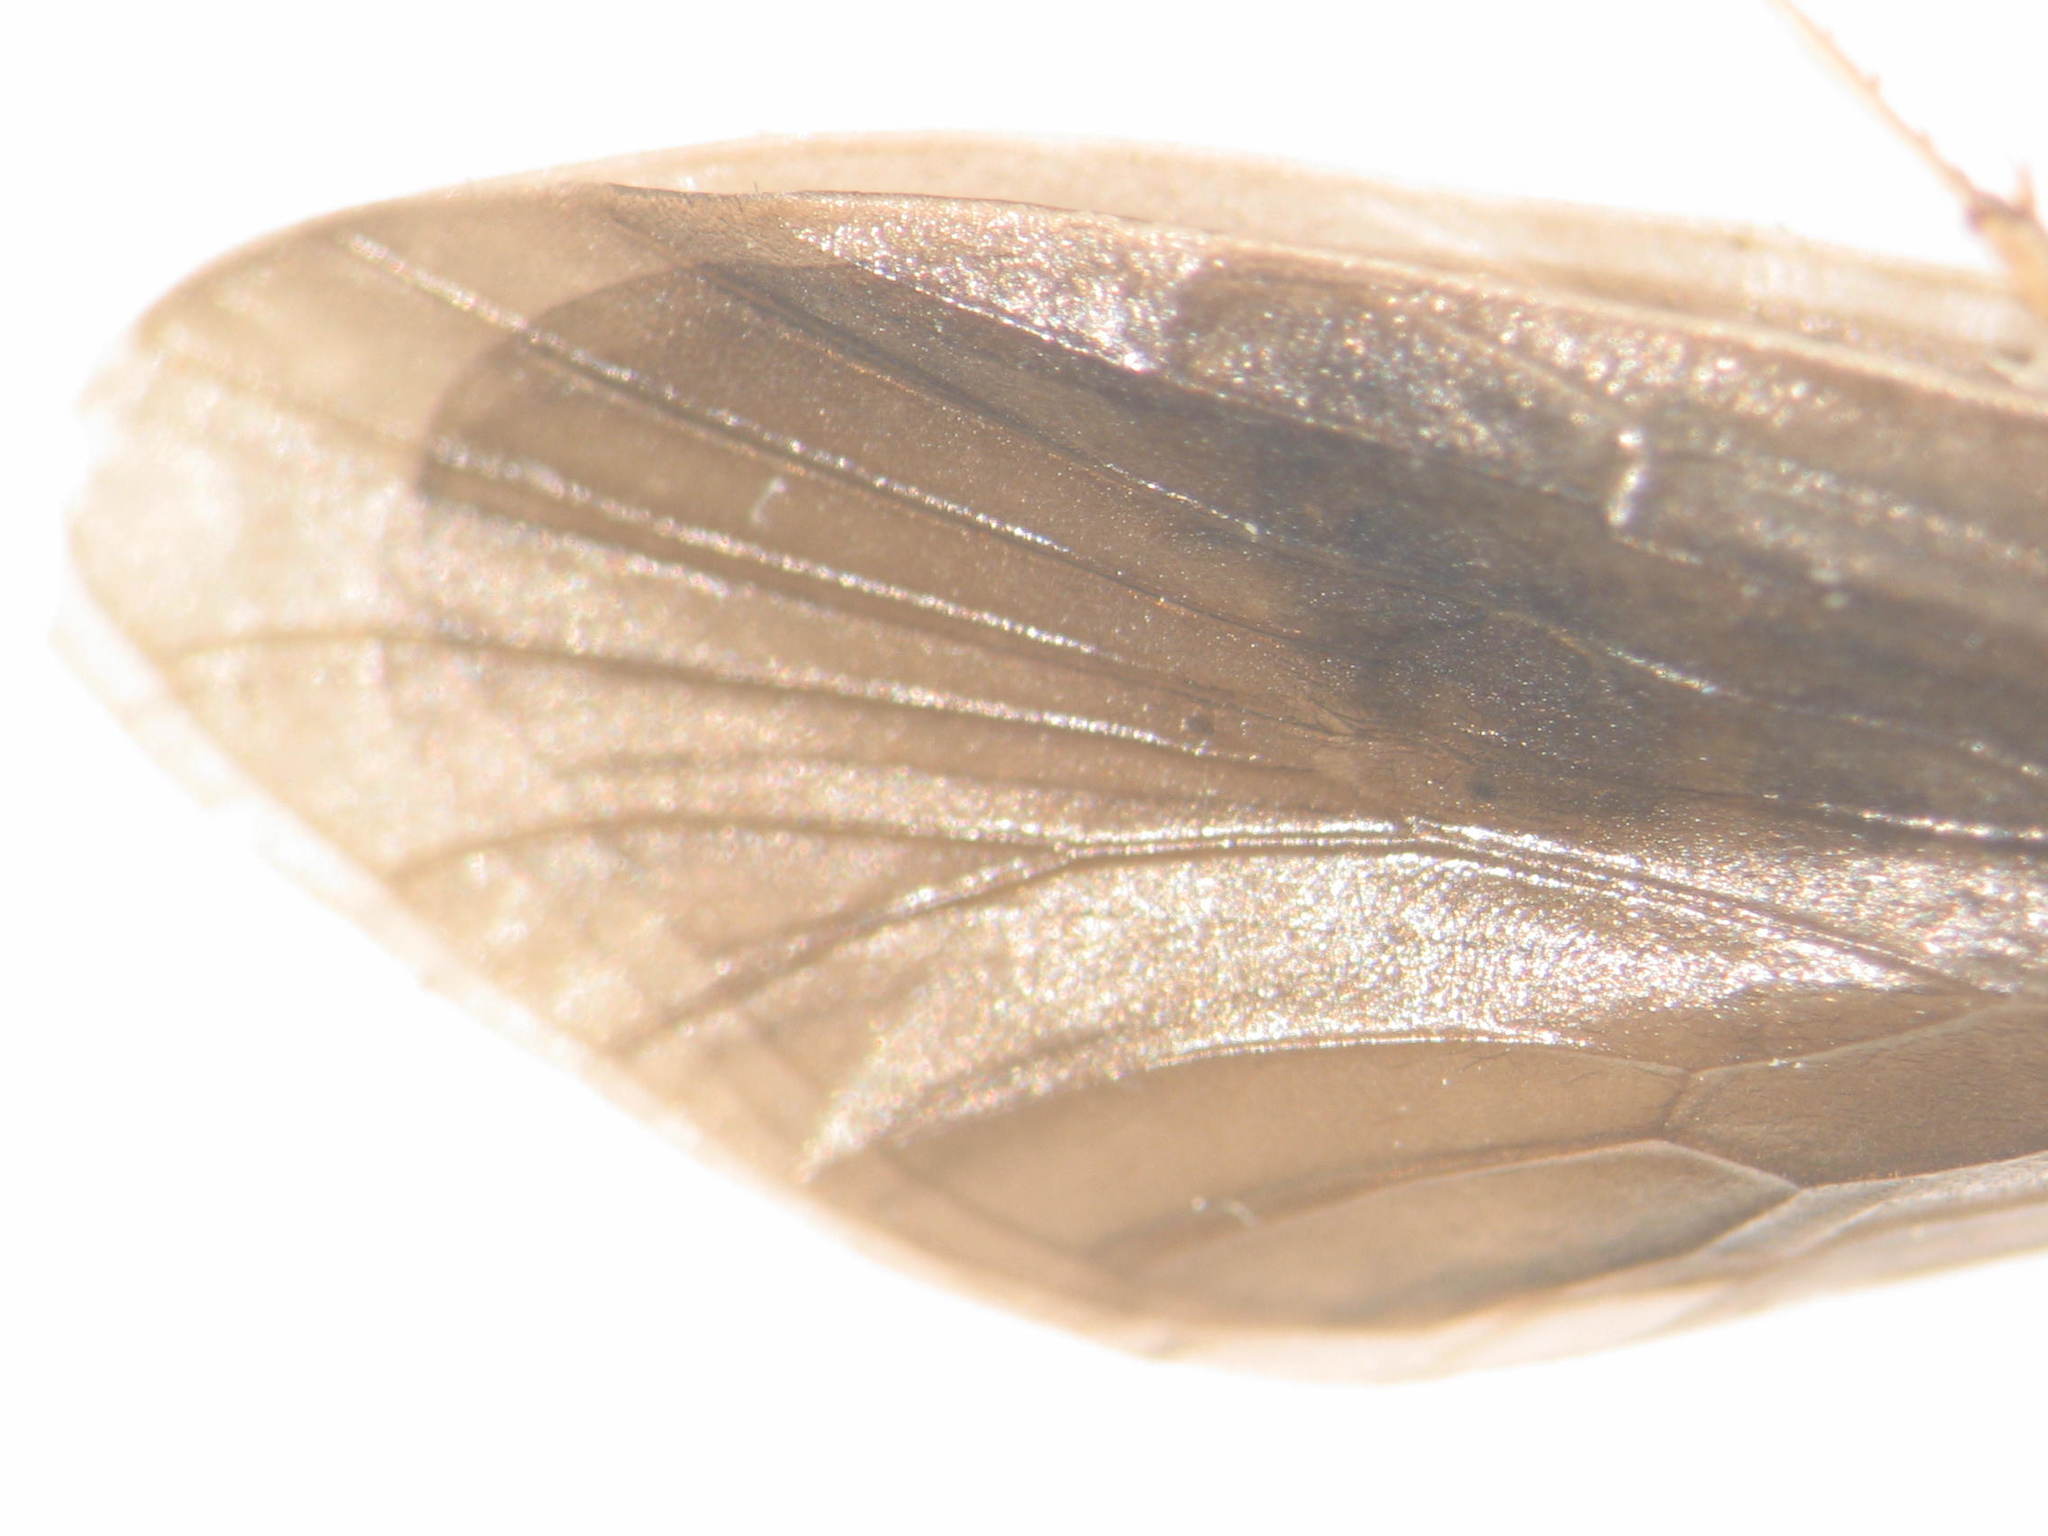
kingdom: Animalia
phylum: Arthropoda
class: Insecta
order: Trichoptera
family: Calocidae
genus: Caenota
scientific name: Caenota plicata
